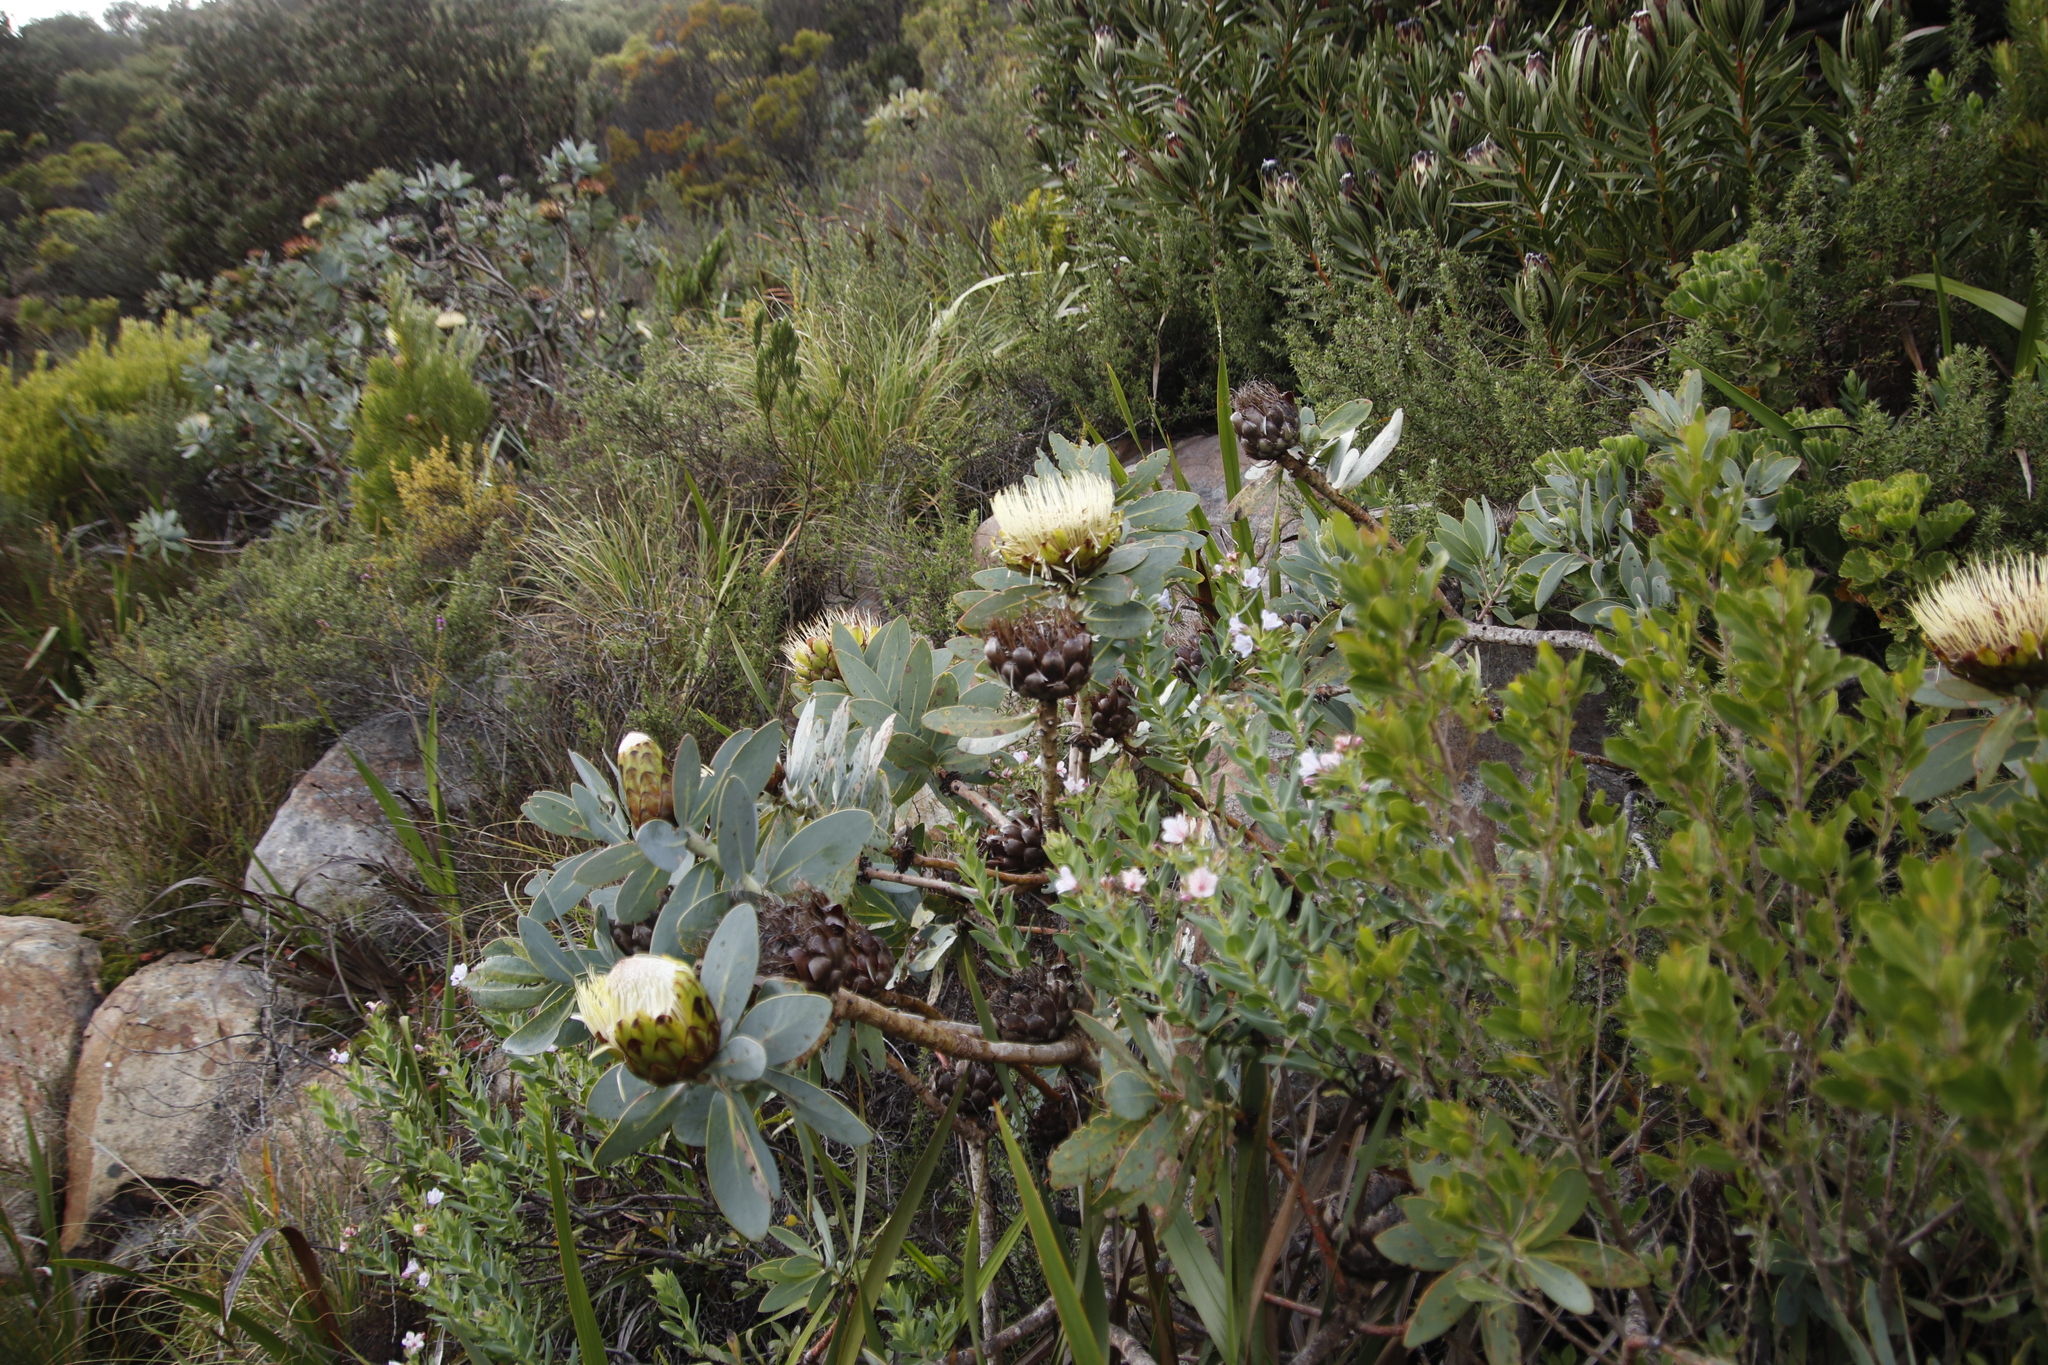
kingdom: Plantae
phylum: Tracheophyta
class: Magnoliopsida
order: Proteales
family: Proteaceae
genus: Protea
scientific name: Protea nitida
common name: Tree protea
